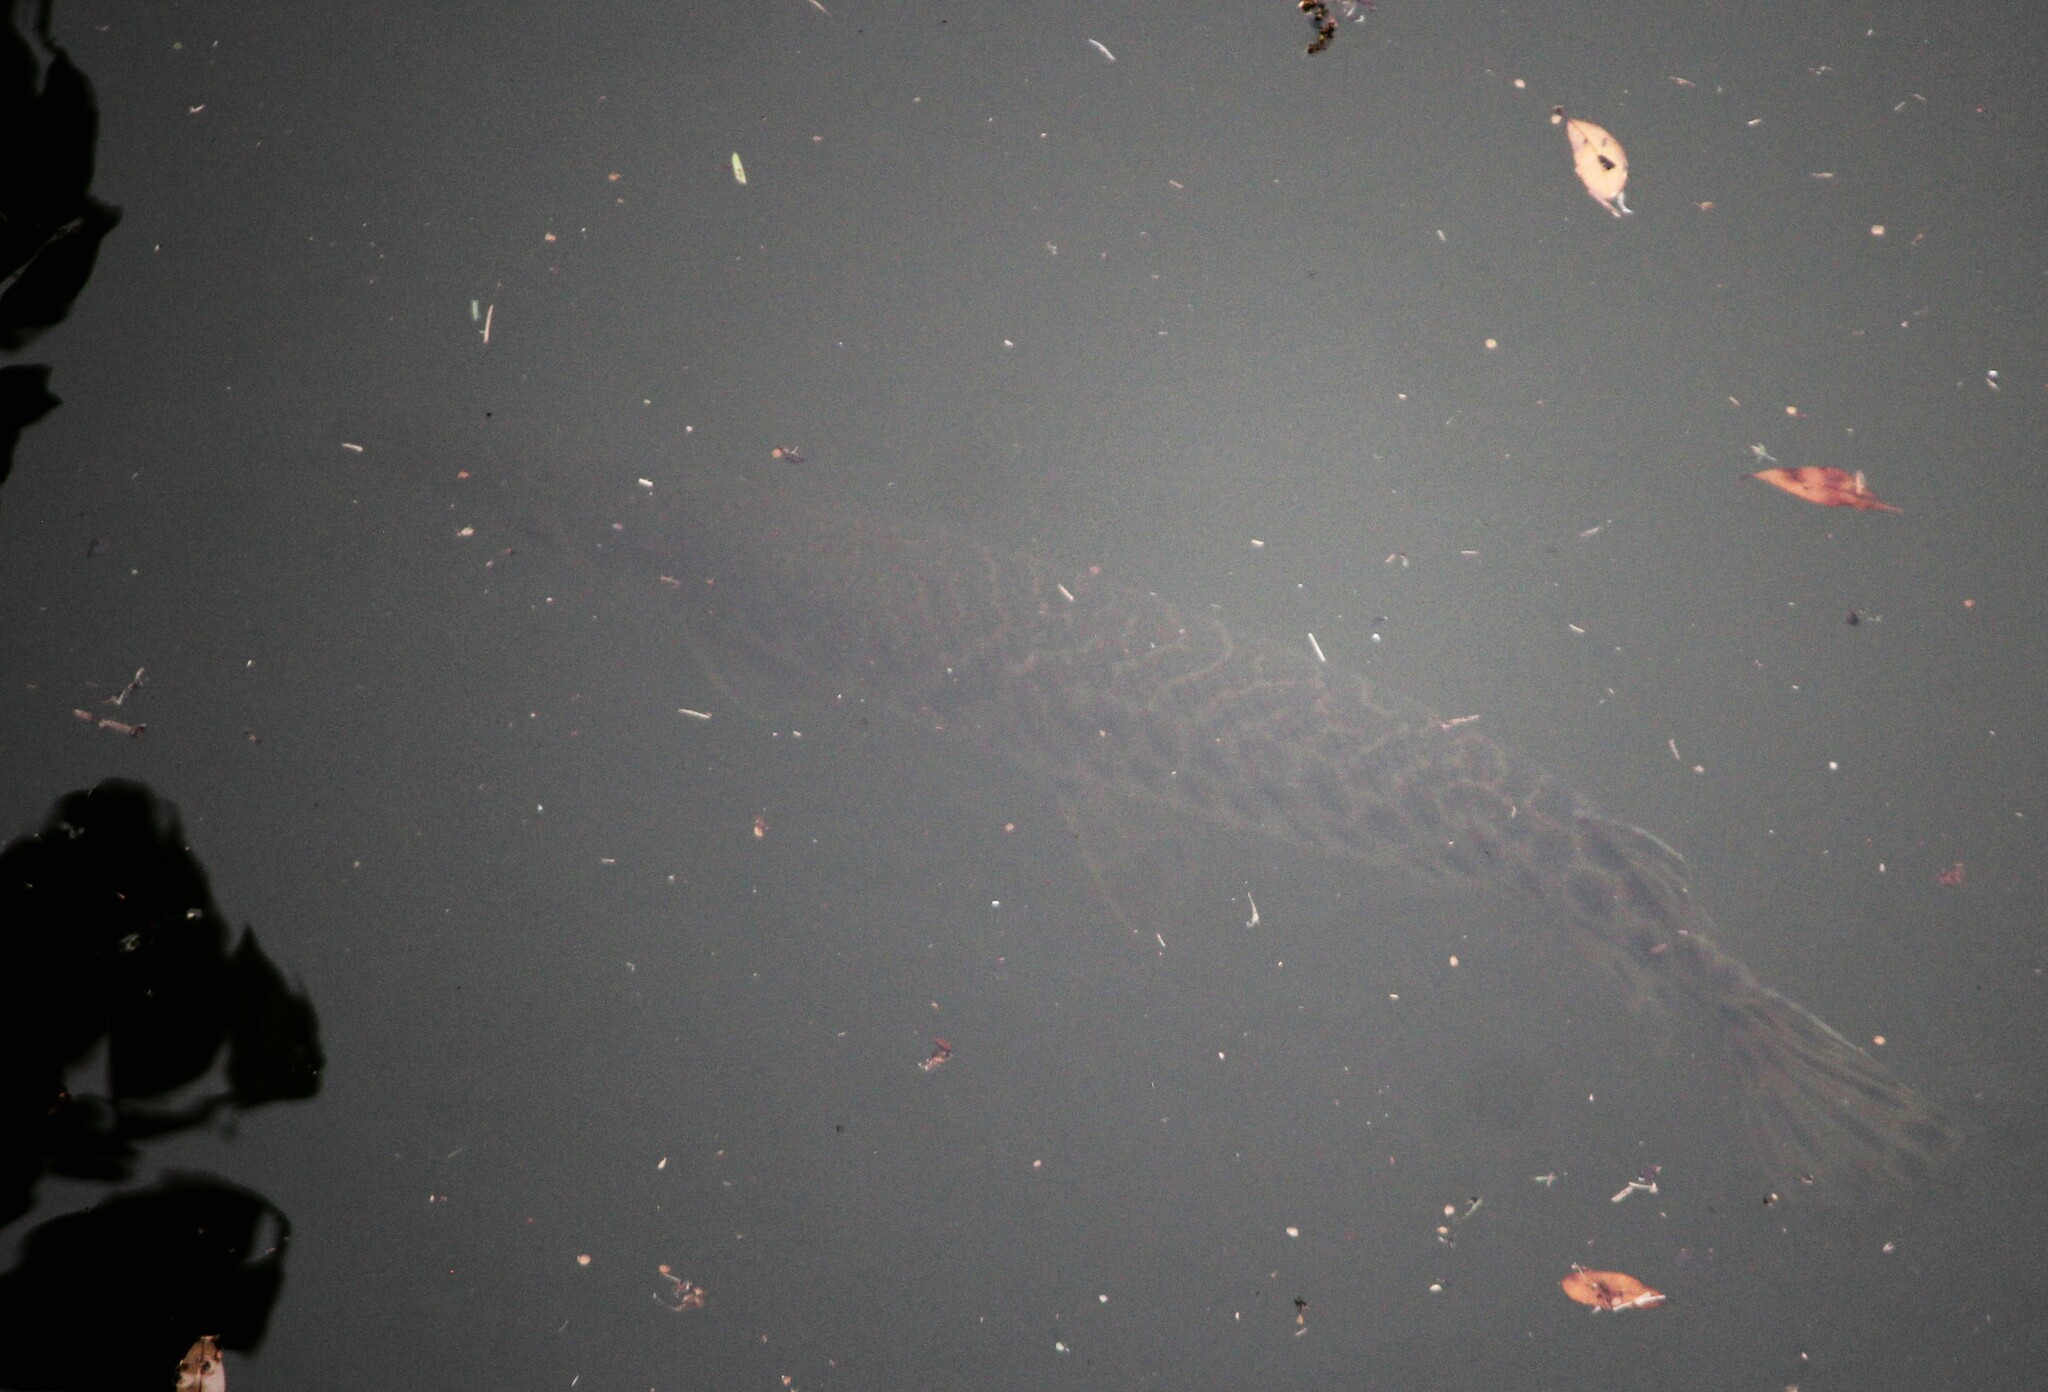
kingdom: Animalia
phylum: Chordata
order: Lepisosteiformes
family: Lepisosteidae
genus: Lepisosteus
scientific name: Lepisosteus oculatus
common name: Spotted gar
